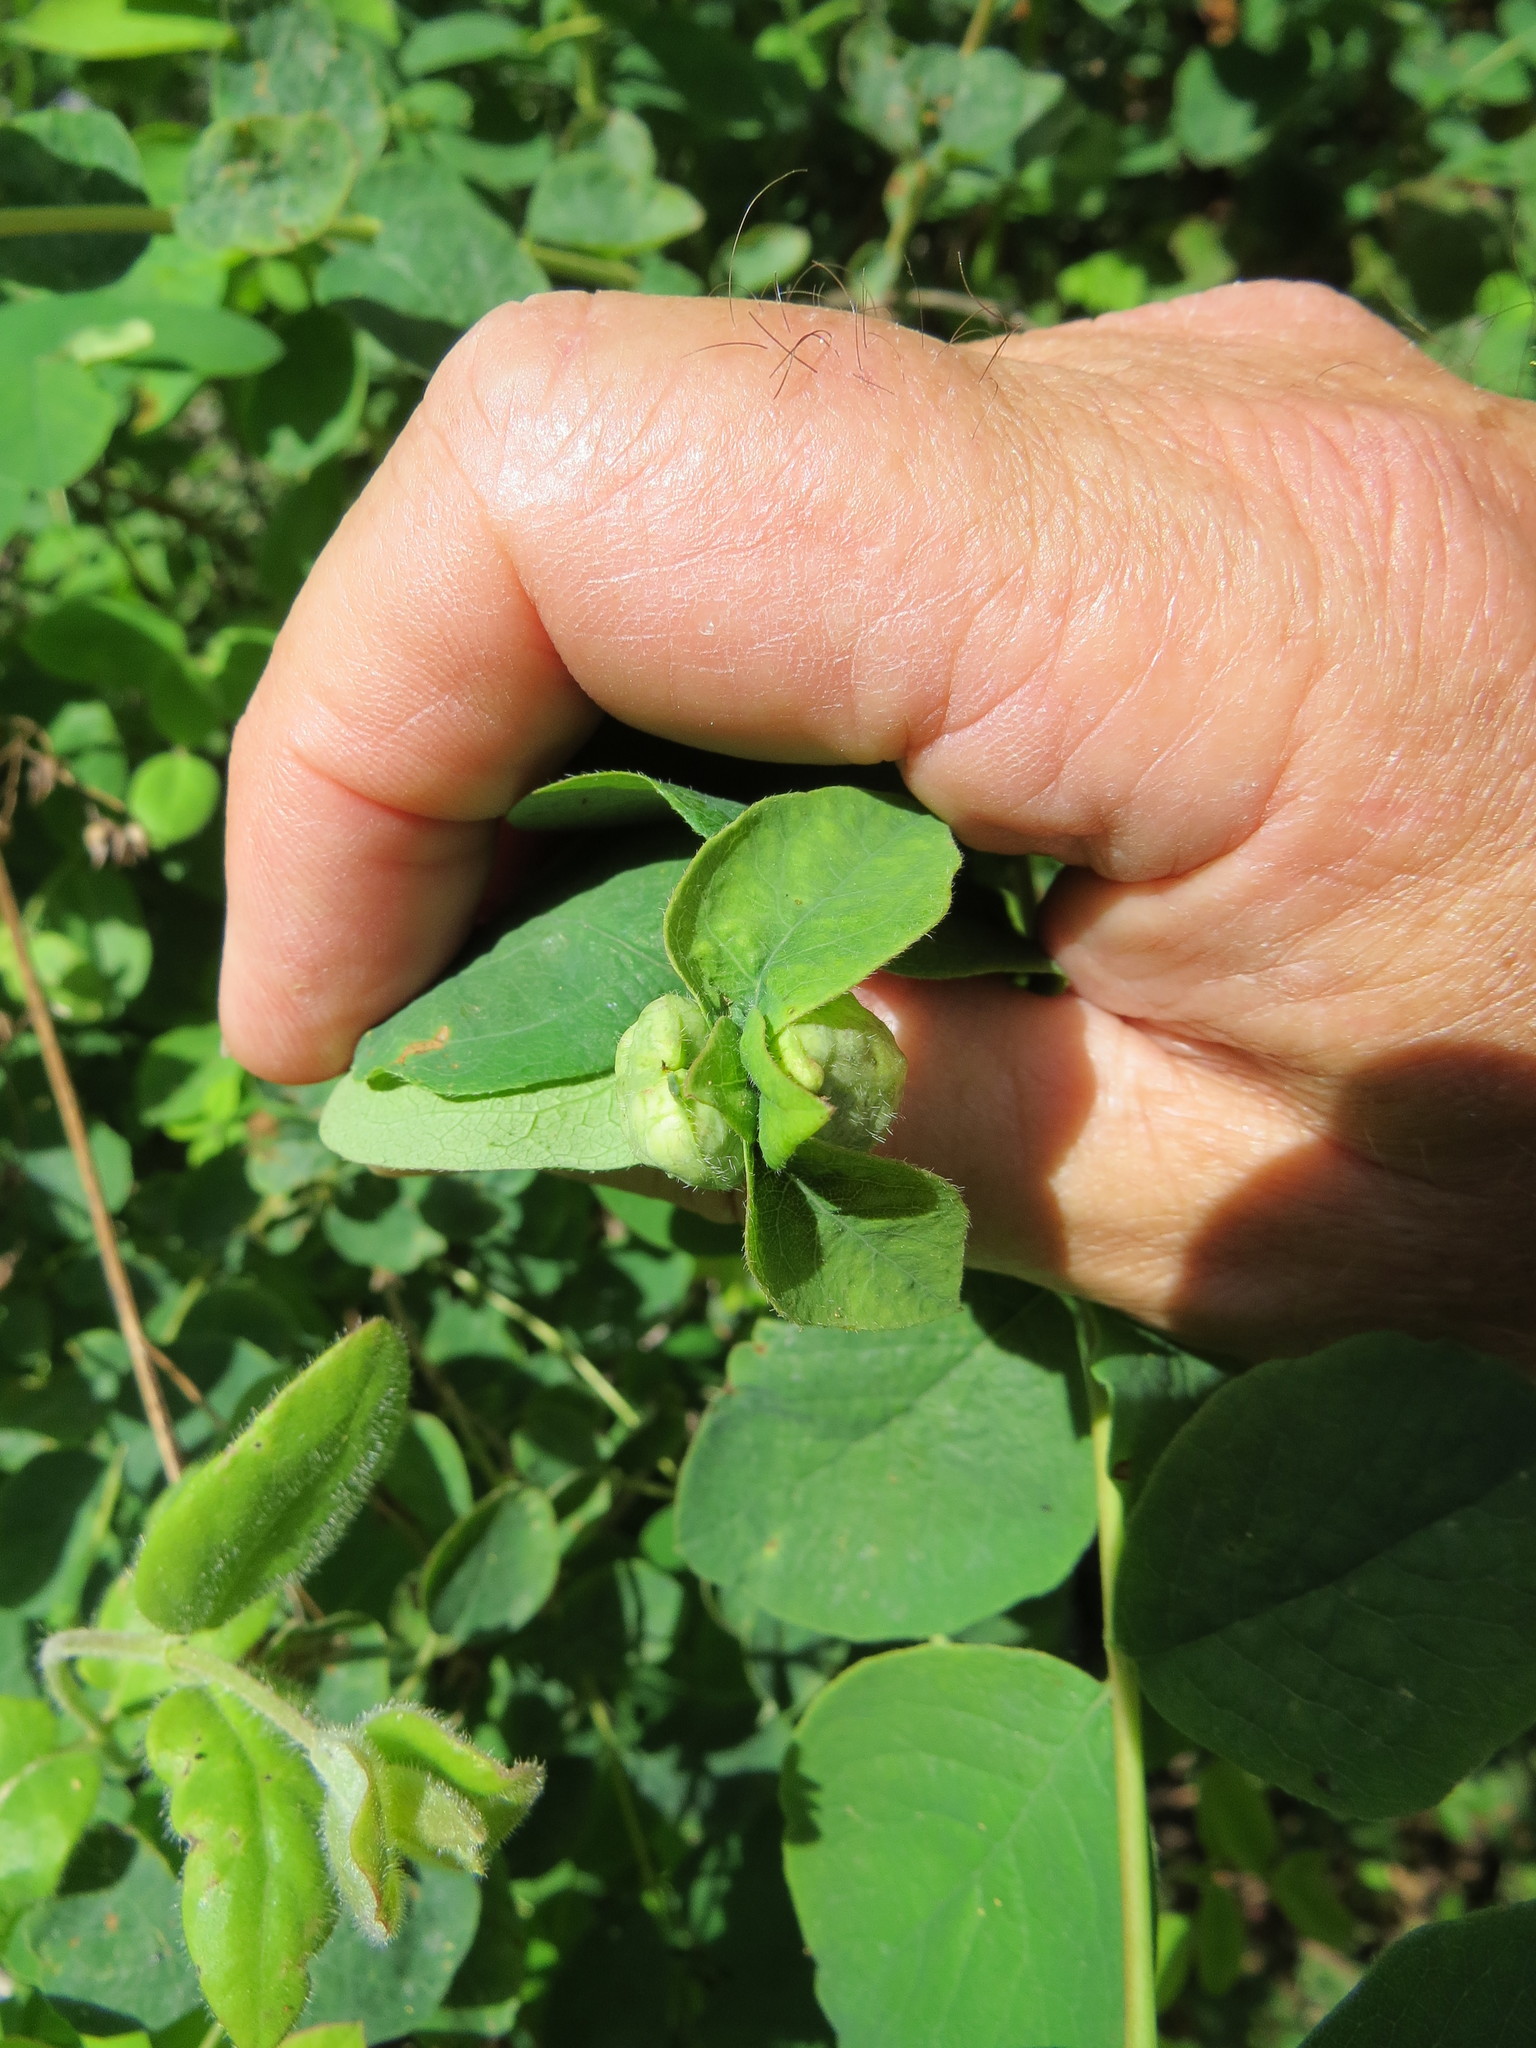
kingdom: Animalia
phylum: Arthropoda
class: Insecta
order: Hymenoptera
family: Tenthredinidae
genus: Blennogeneris
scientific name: Blennogeneris spissipes
